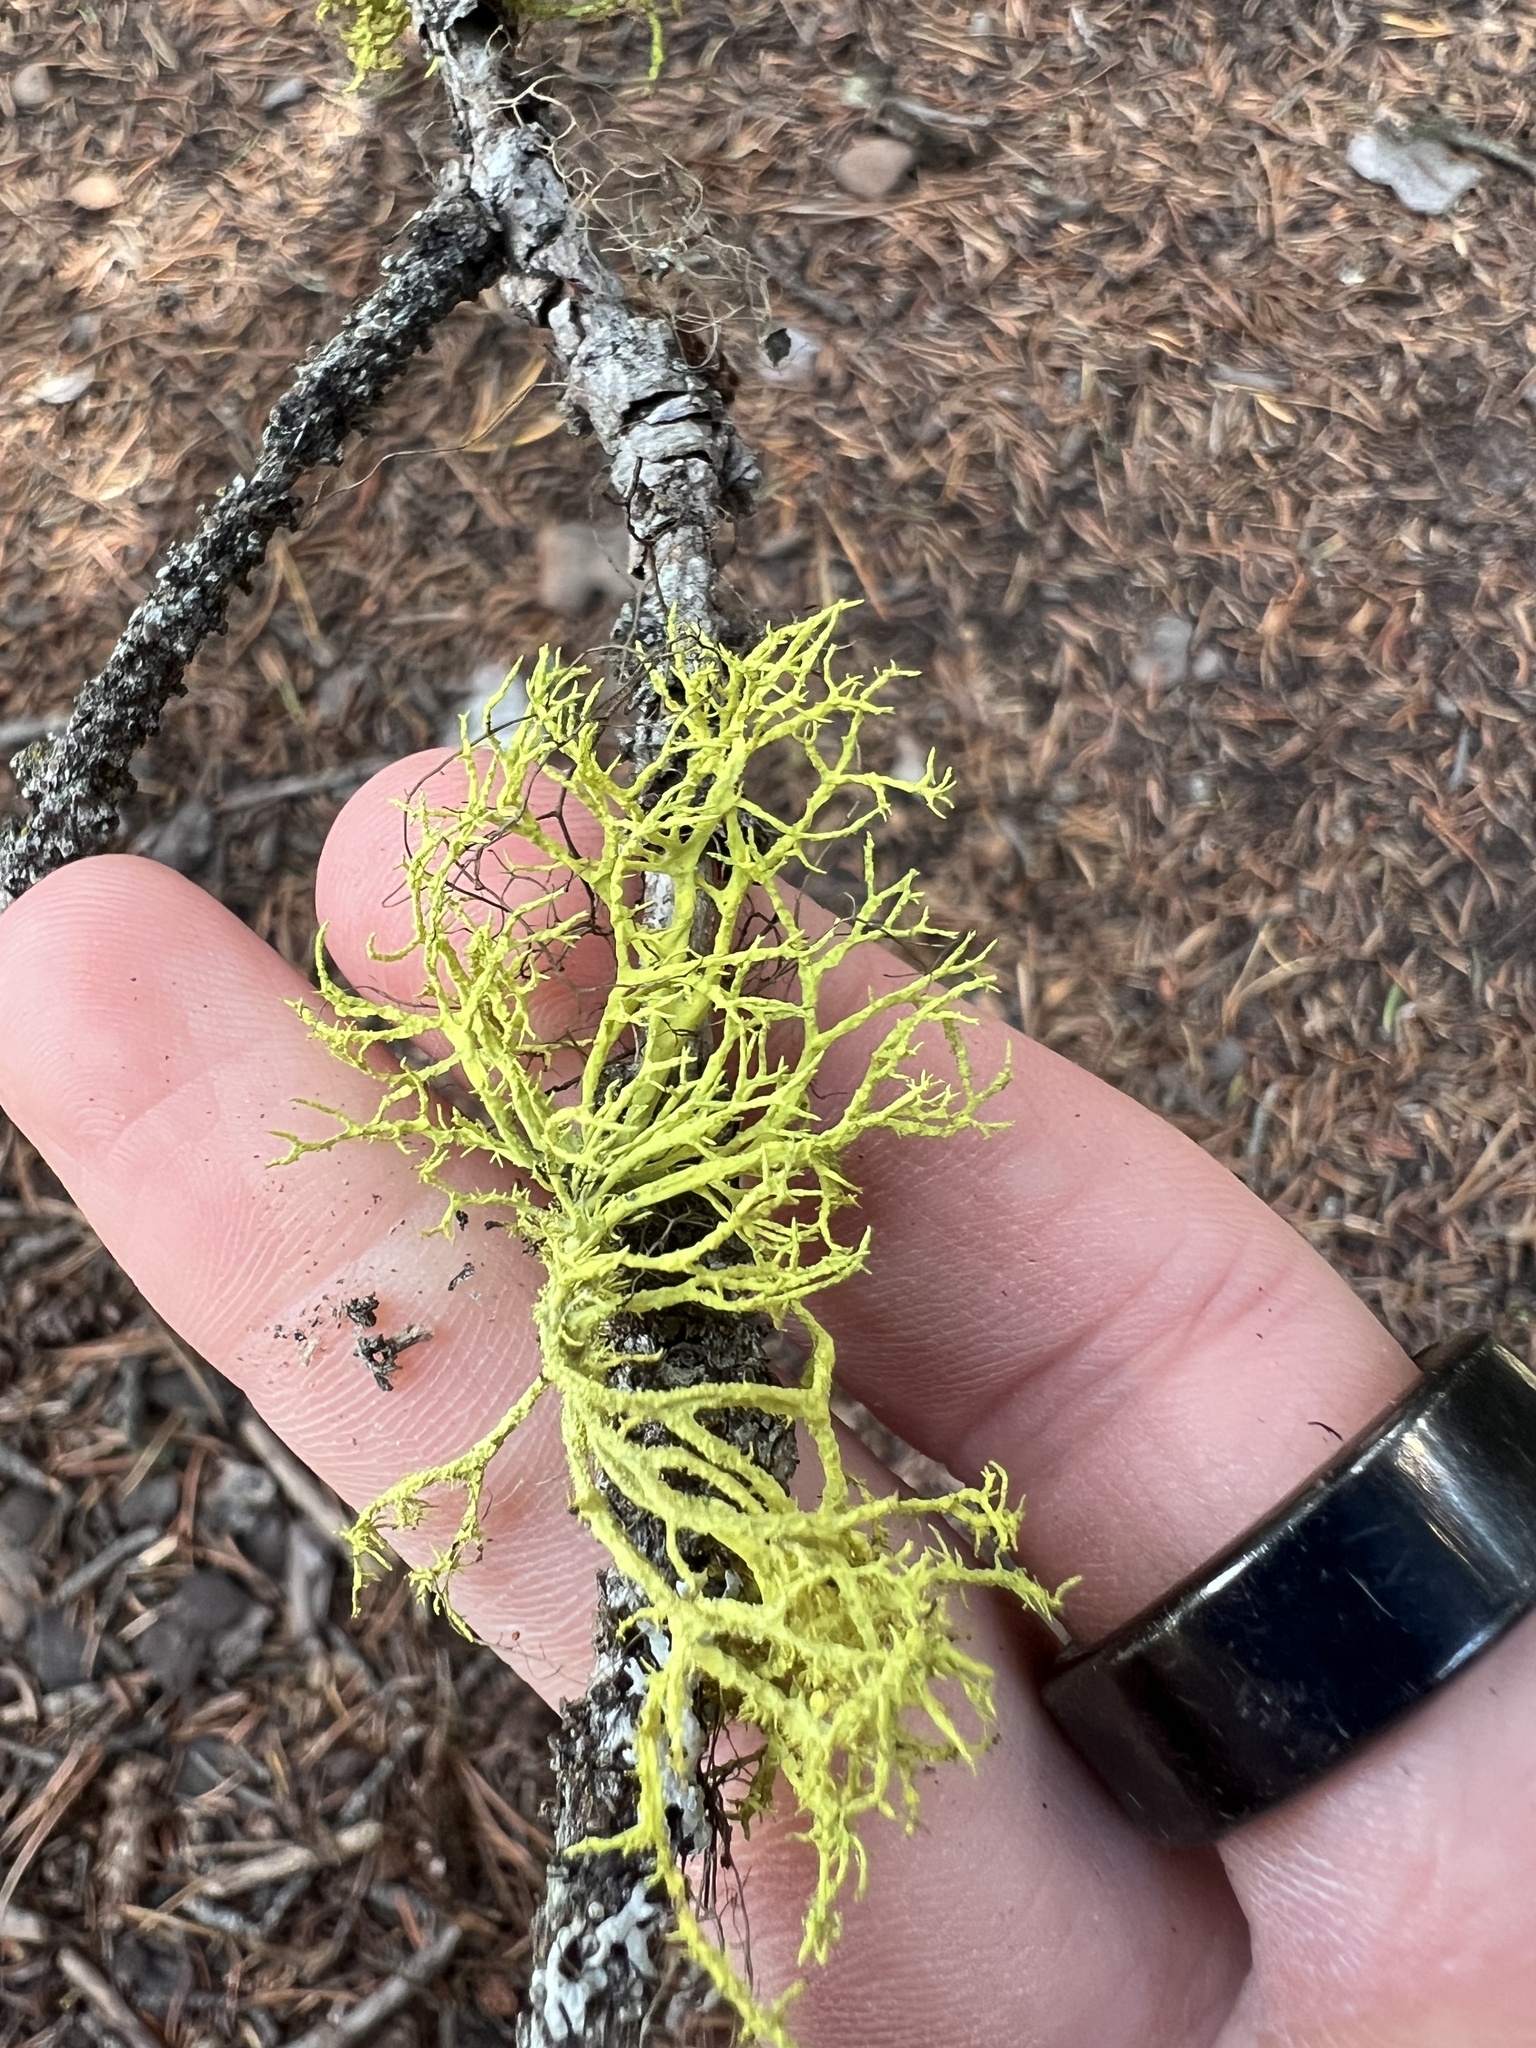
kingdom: Fungi
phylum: Ascomycota
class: Lecanoromycetes
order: Lecanorales
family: Parmeliaceae
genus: Letharia
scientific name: Letharia vulpina
